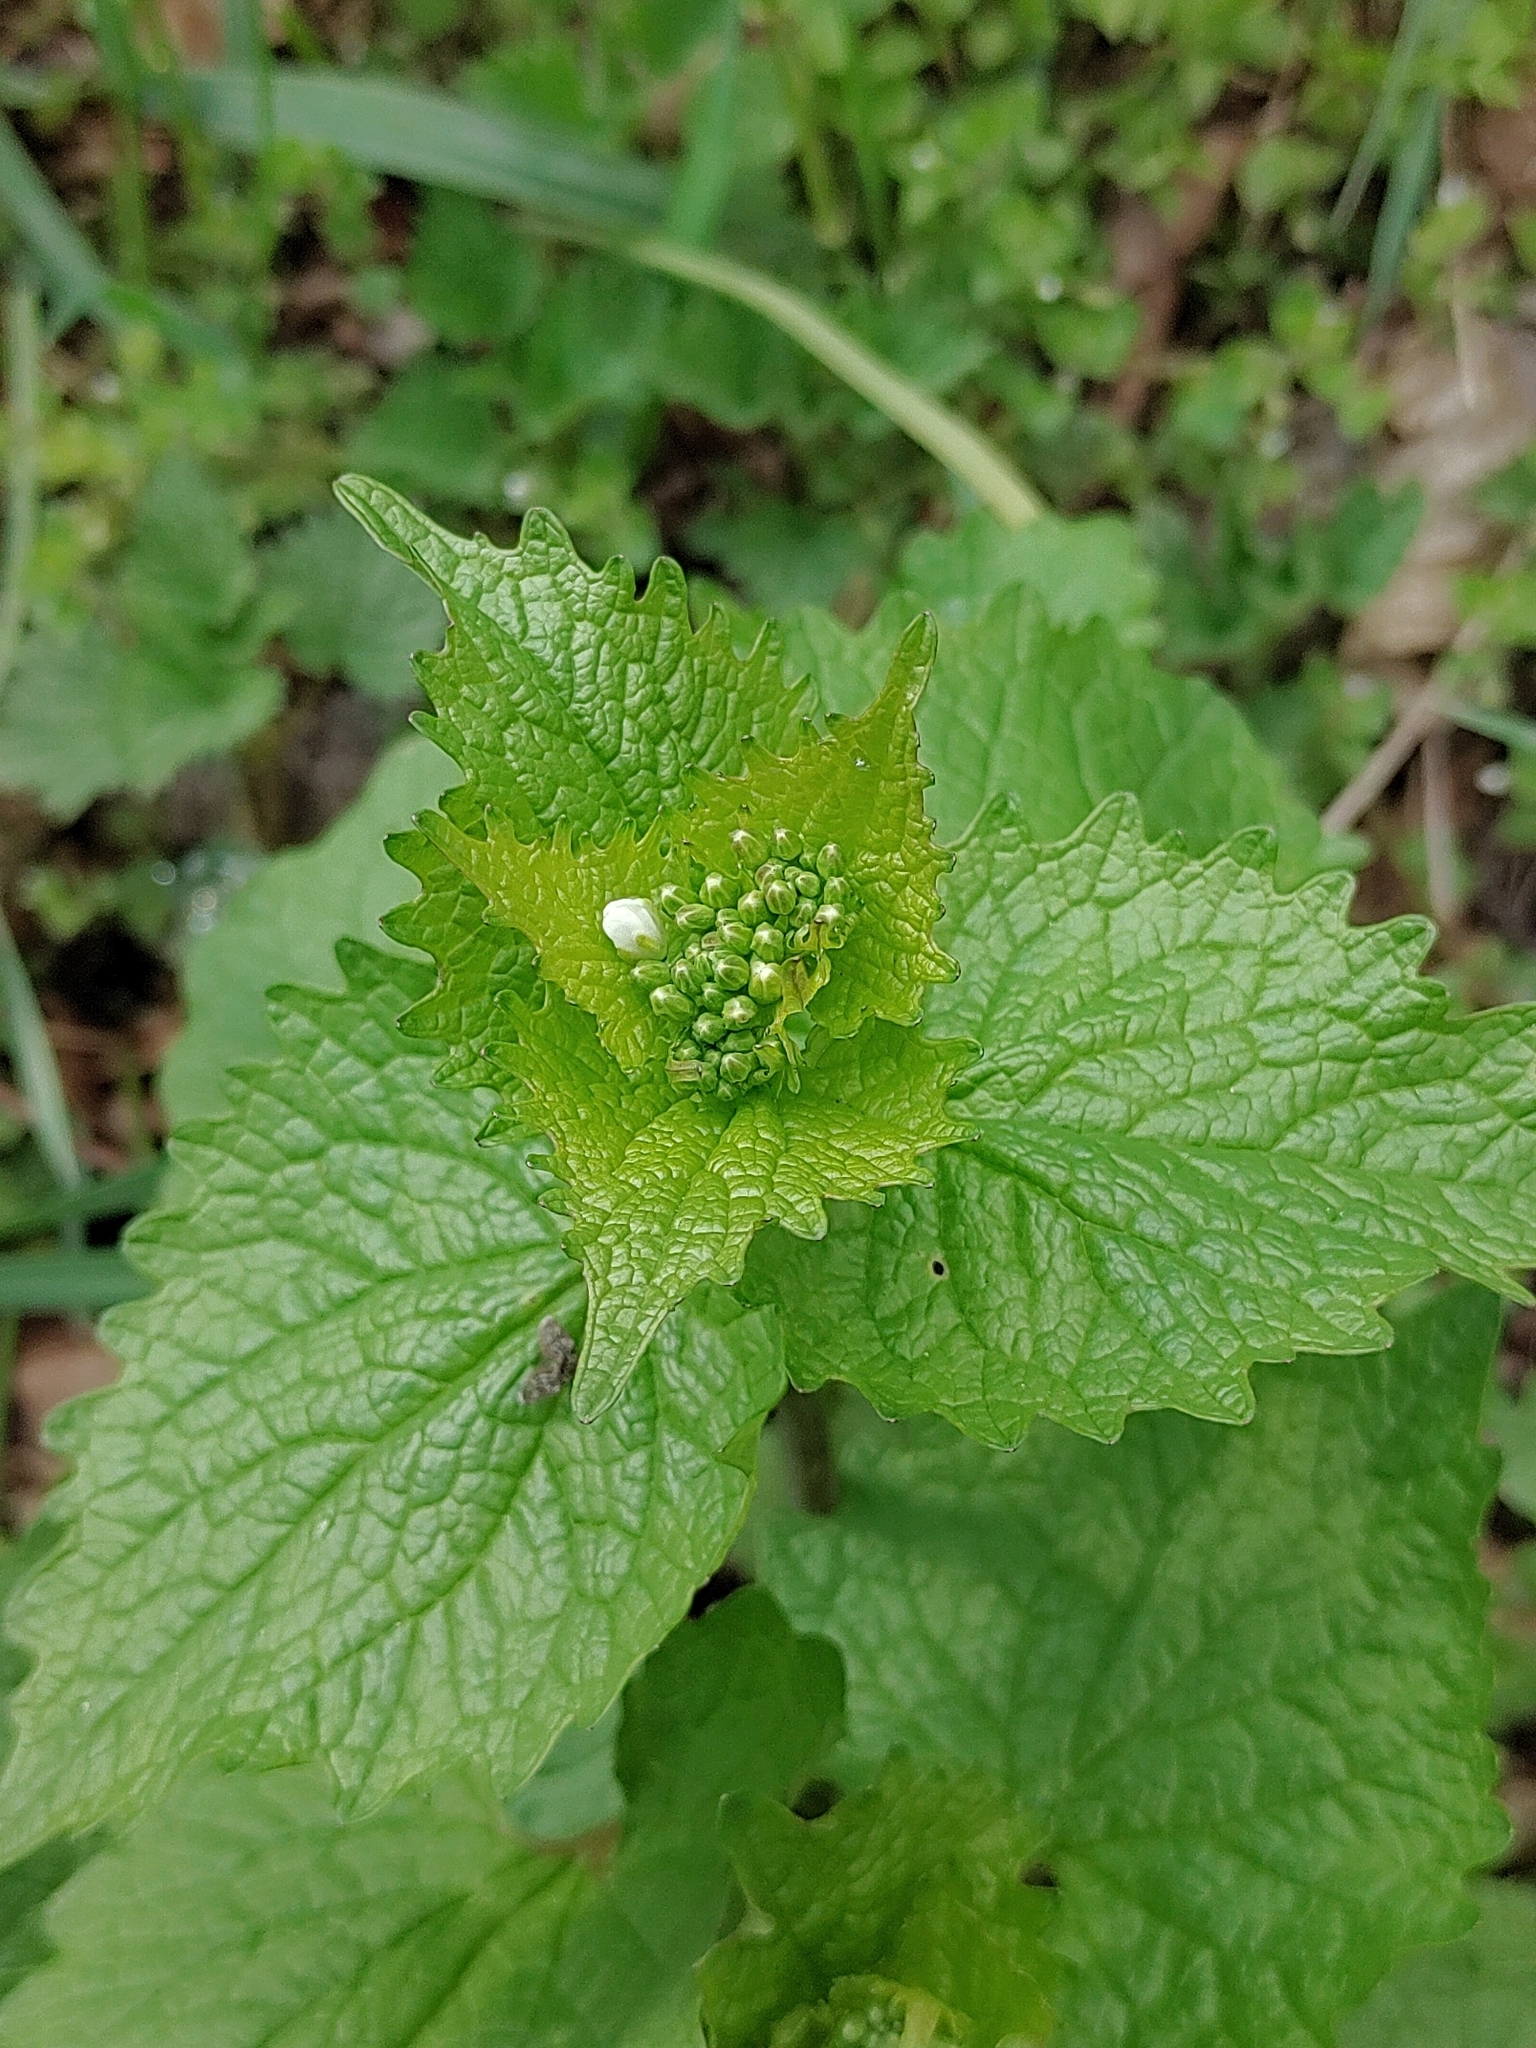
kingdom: Plantae
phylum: Tracheophyta
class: Magnoliopsida
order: Brassicales
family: Brassicaceae
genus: Alliaria
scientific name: Alliaria petiolata
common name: Garlic mustard
